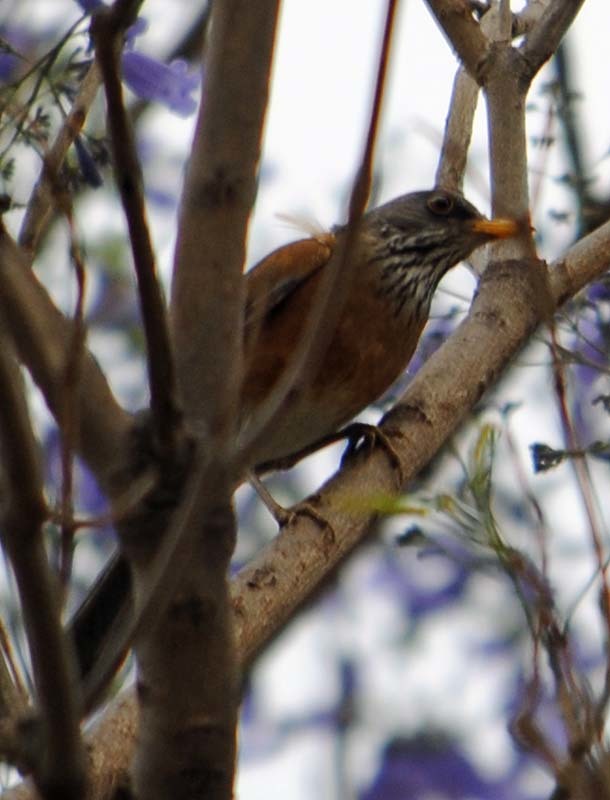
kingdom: Animalia
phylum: Chordata
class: Aves
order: Passeriformes
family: Turdidae
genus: Turdus
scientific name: Turdus rufopalliatus
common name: Rufous-backed robin
